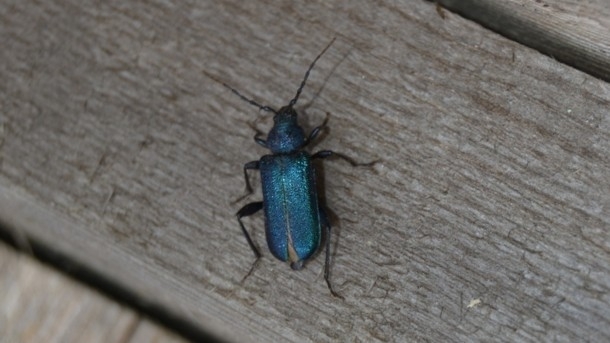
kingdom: Animalia
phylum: Arthropoda
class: Insecta
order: Coleoptera
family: Cerambycidae
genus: Callidium
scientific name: Callidium violaceum
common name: Violet tanbark beetle
